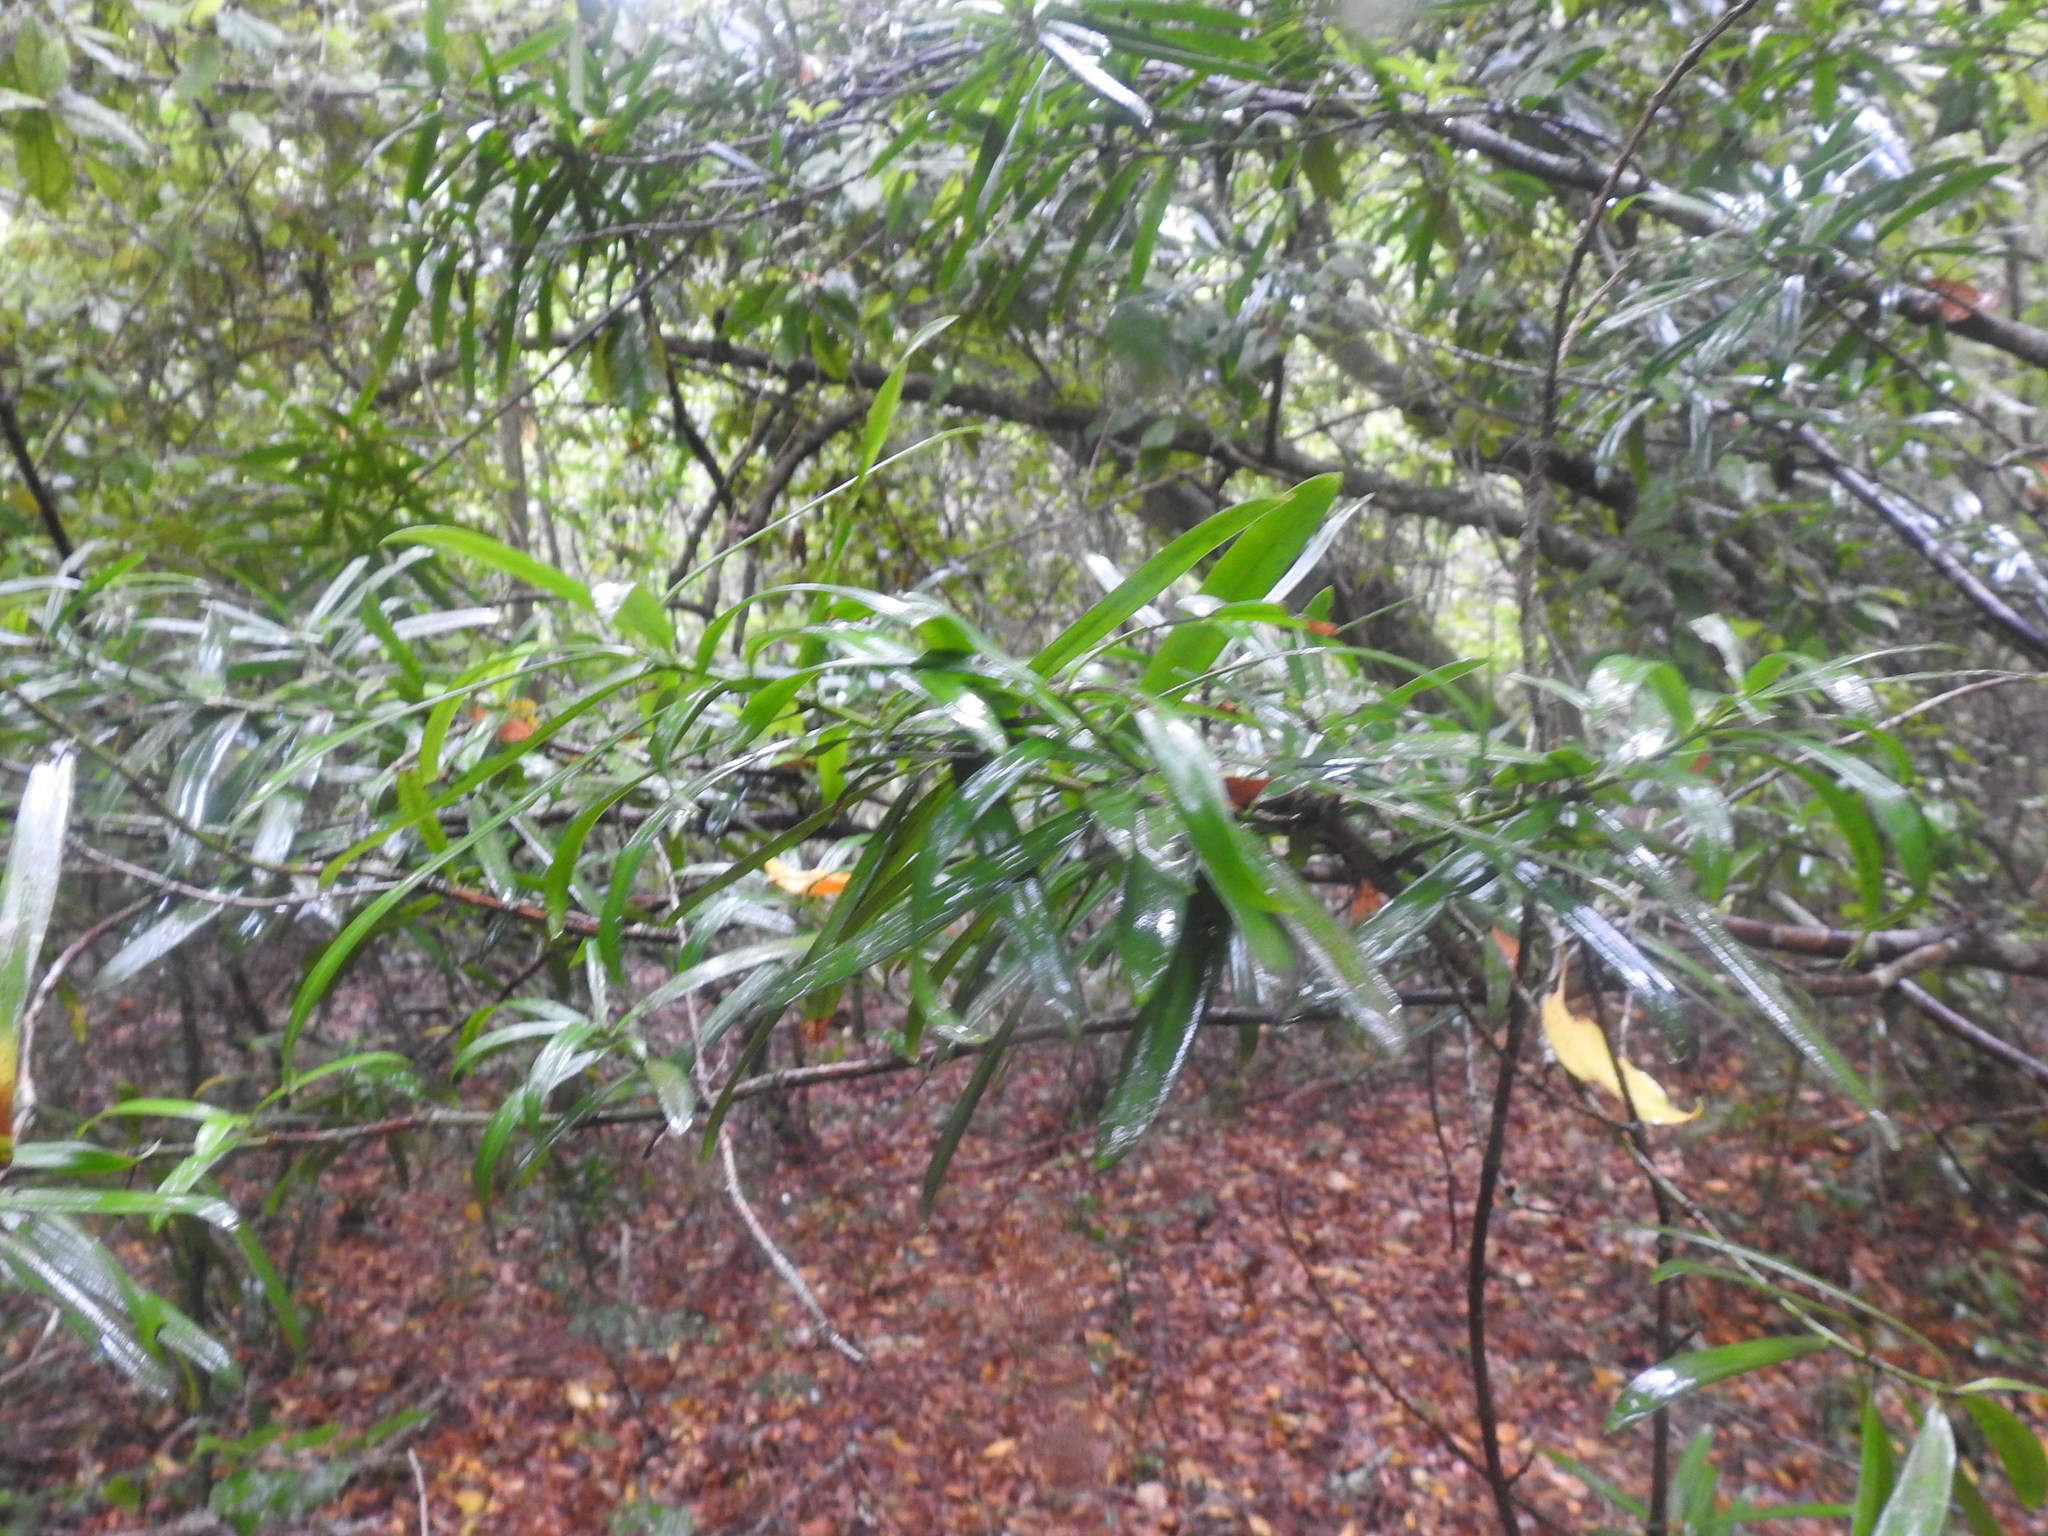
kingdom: Plantae
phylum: Tracheophyta
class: Pinopsida
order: Pinales
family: Podocarpaceae
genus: Podocarpus
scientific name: Podocarpus latifolius
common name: True yellowwood
